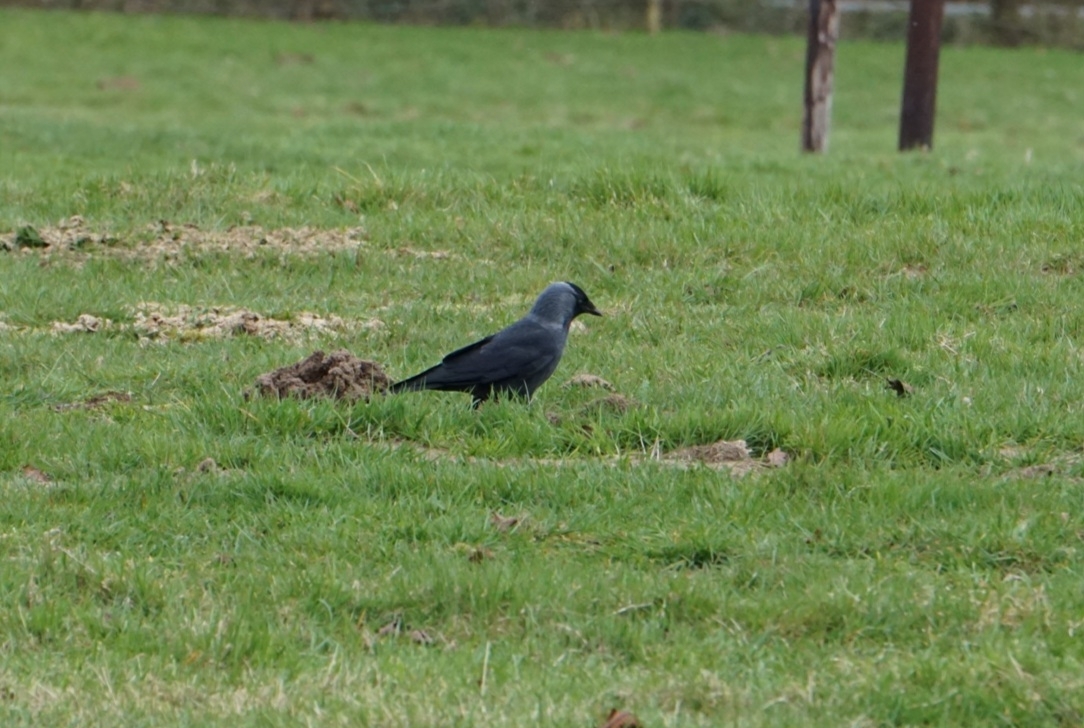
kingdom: Animalia
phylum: Chordata
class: Aves
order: Passeriformes
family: Corvidae
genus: Coloeus
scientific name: Coloeus monedula
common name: Western jackdaw
